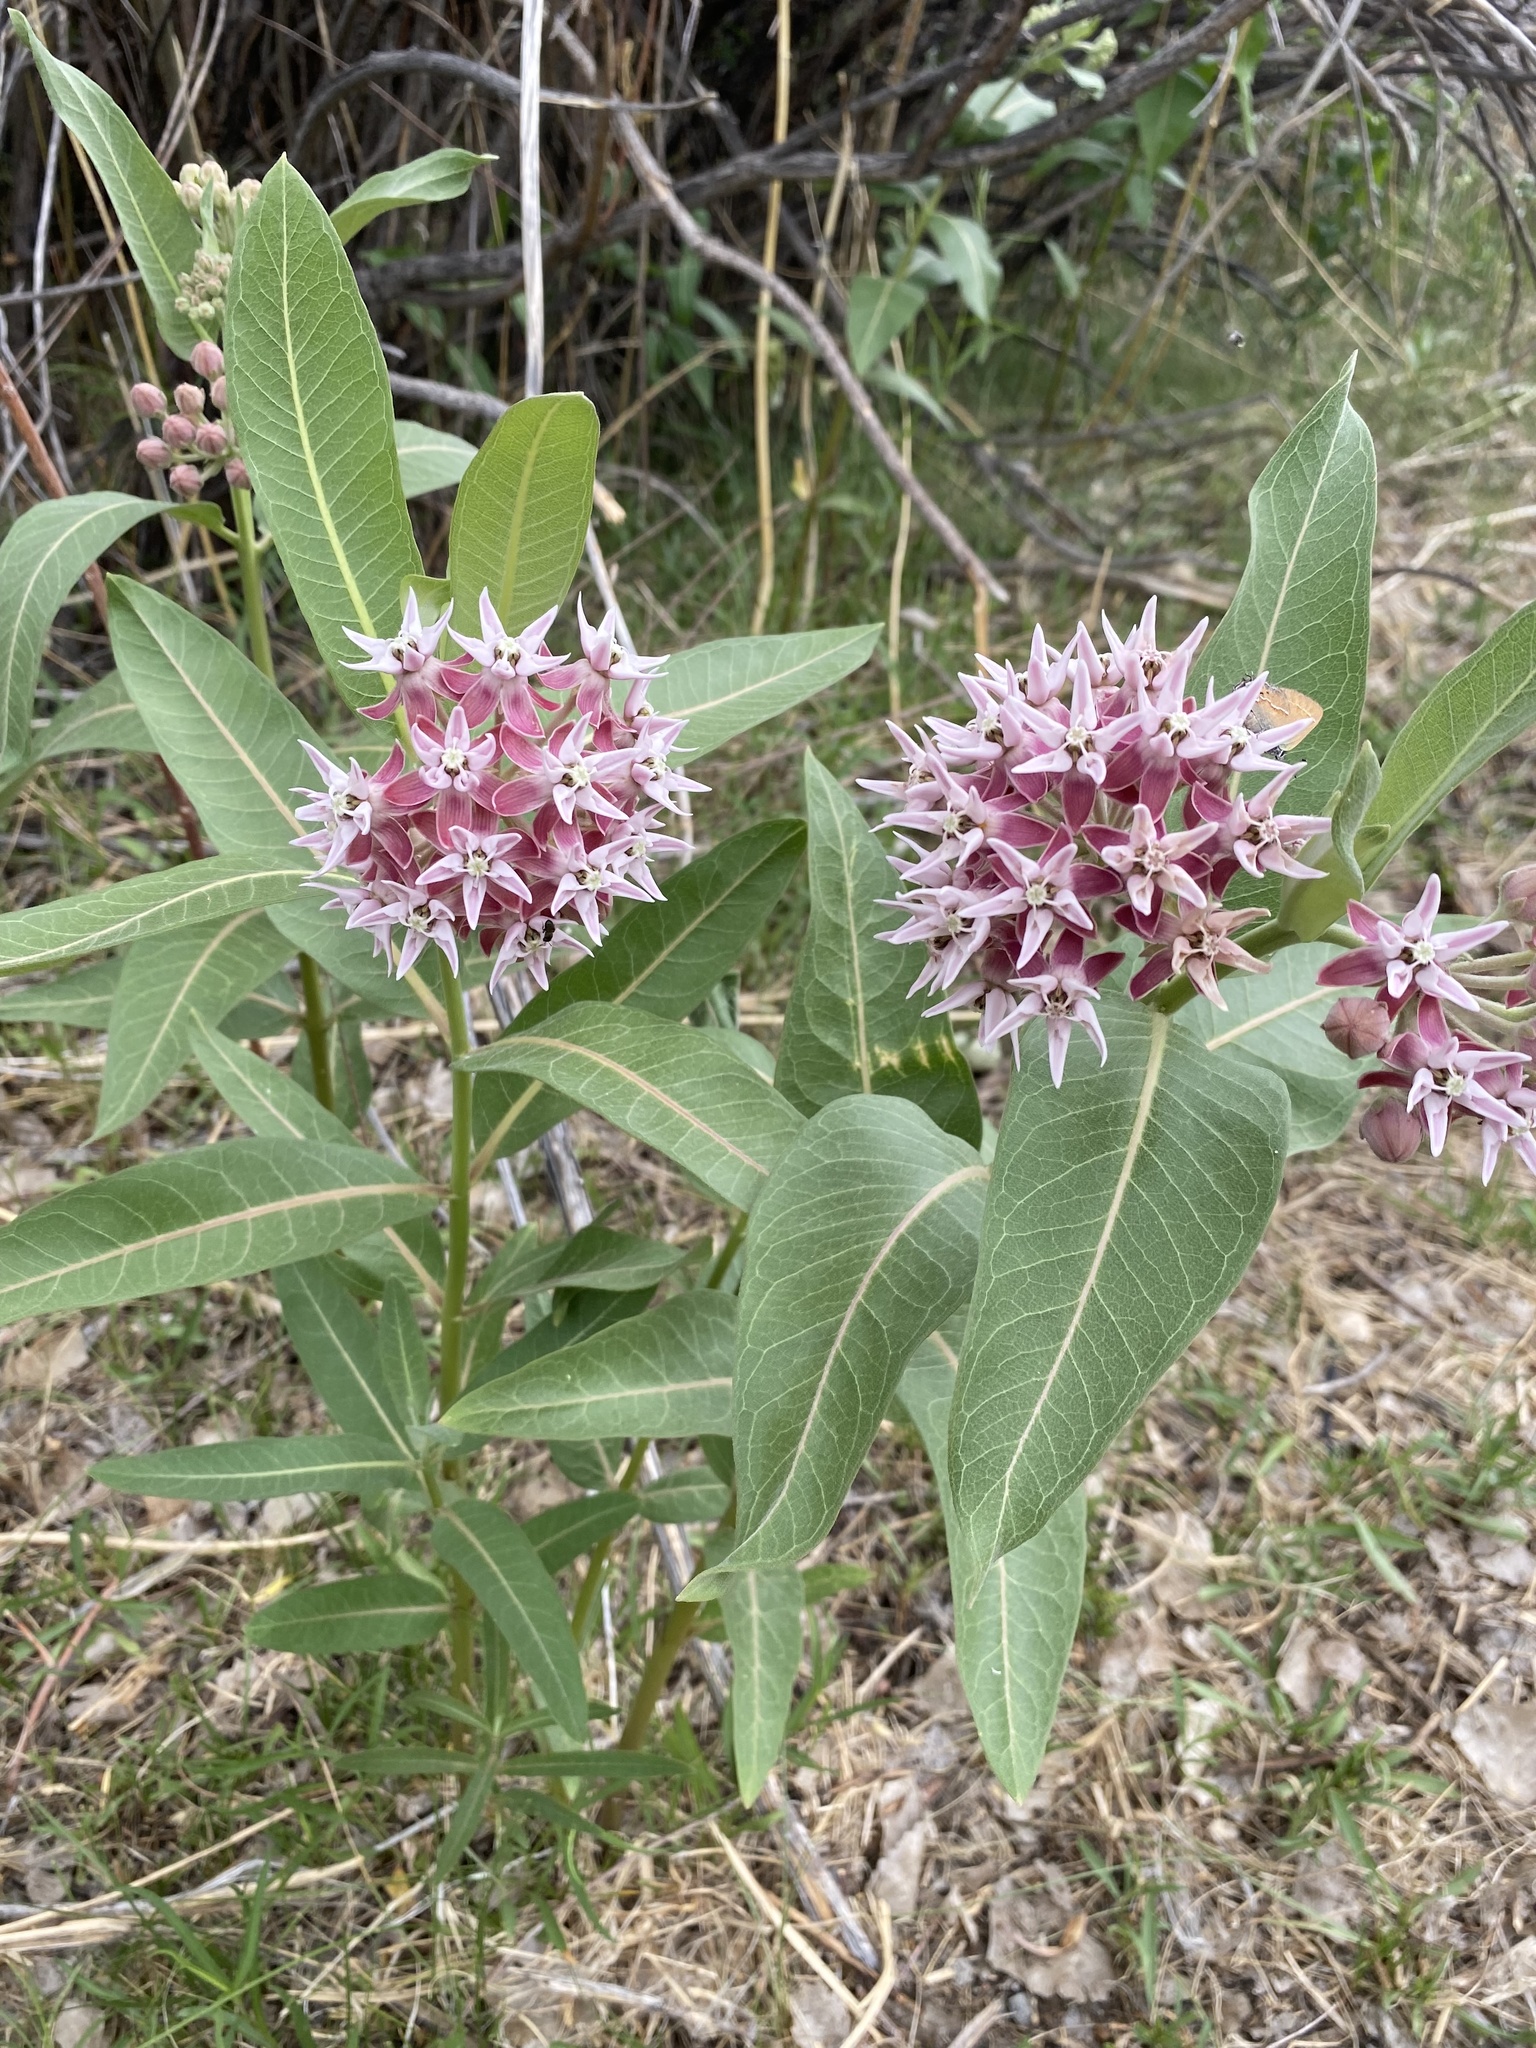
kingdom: Plantae
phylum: Tracheophyta
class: Magnoliopsida
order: Gentianales
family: Apocynaceae
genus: Asclepias
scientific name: Asclepias speciosa
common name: Showy milkweed
